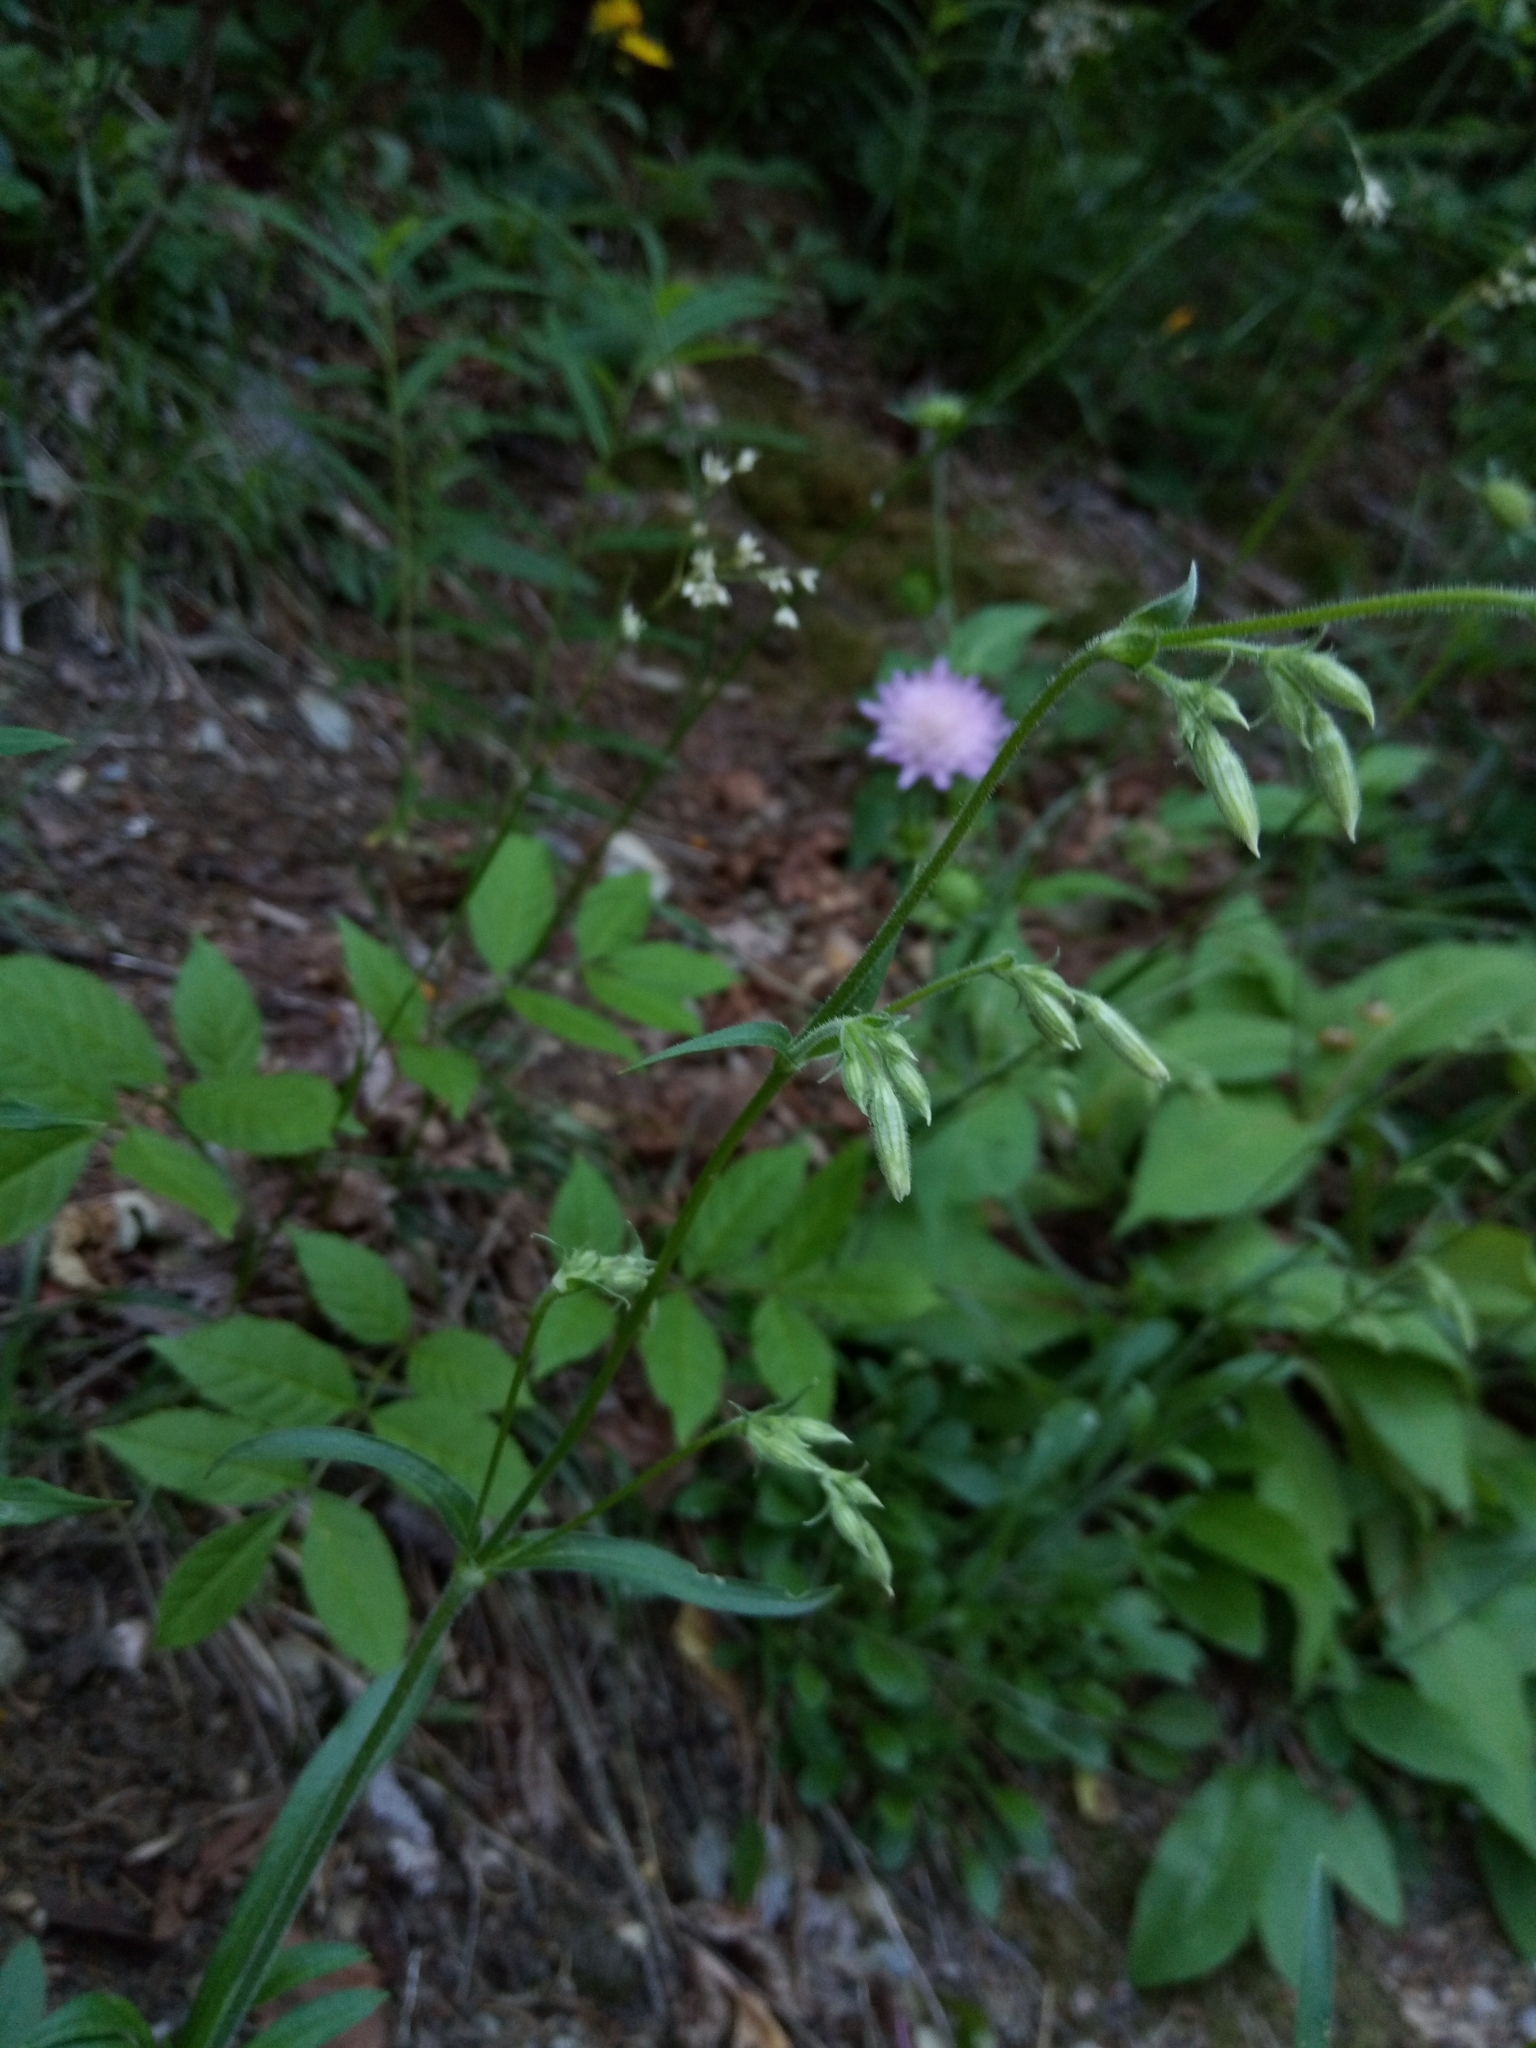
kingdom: Plantae
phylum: Tracheophyta
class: Magnoliopsida
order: Caryophyllales
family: Caryophyllaceae
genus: Silene
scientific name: Silene nutans
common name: Nottingham catchfly
